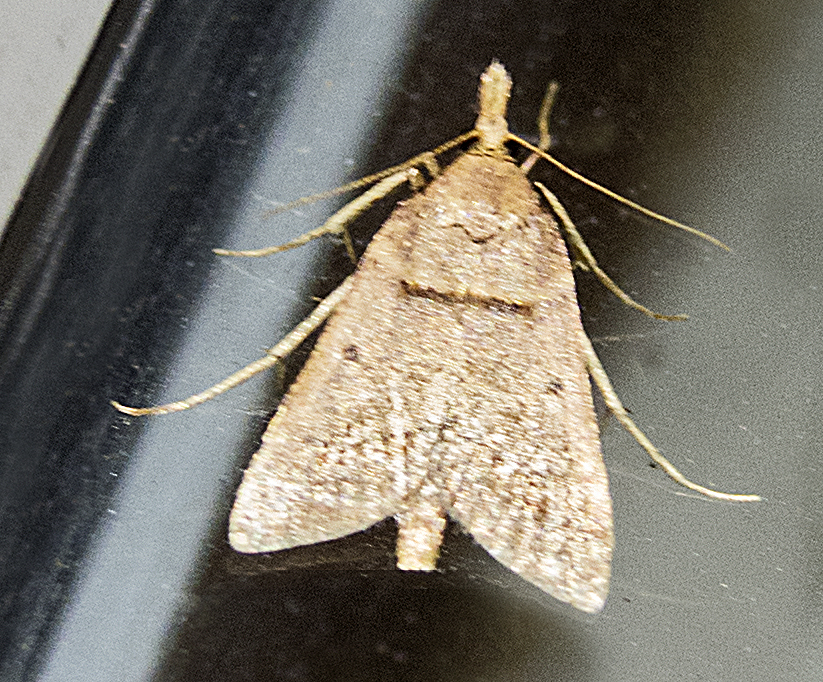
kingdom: Animalia
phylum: Arthropoda
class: Insecta
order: Lepidoptera
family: Pyralidae
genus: Stemmatophora
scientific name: Stemmatophora brunnealis
